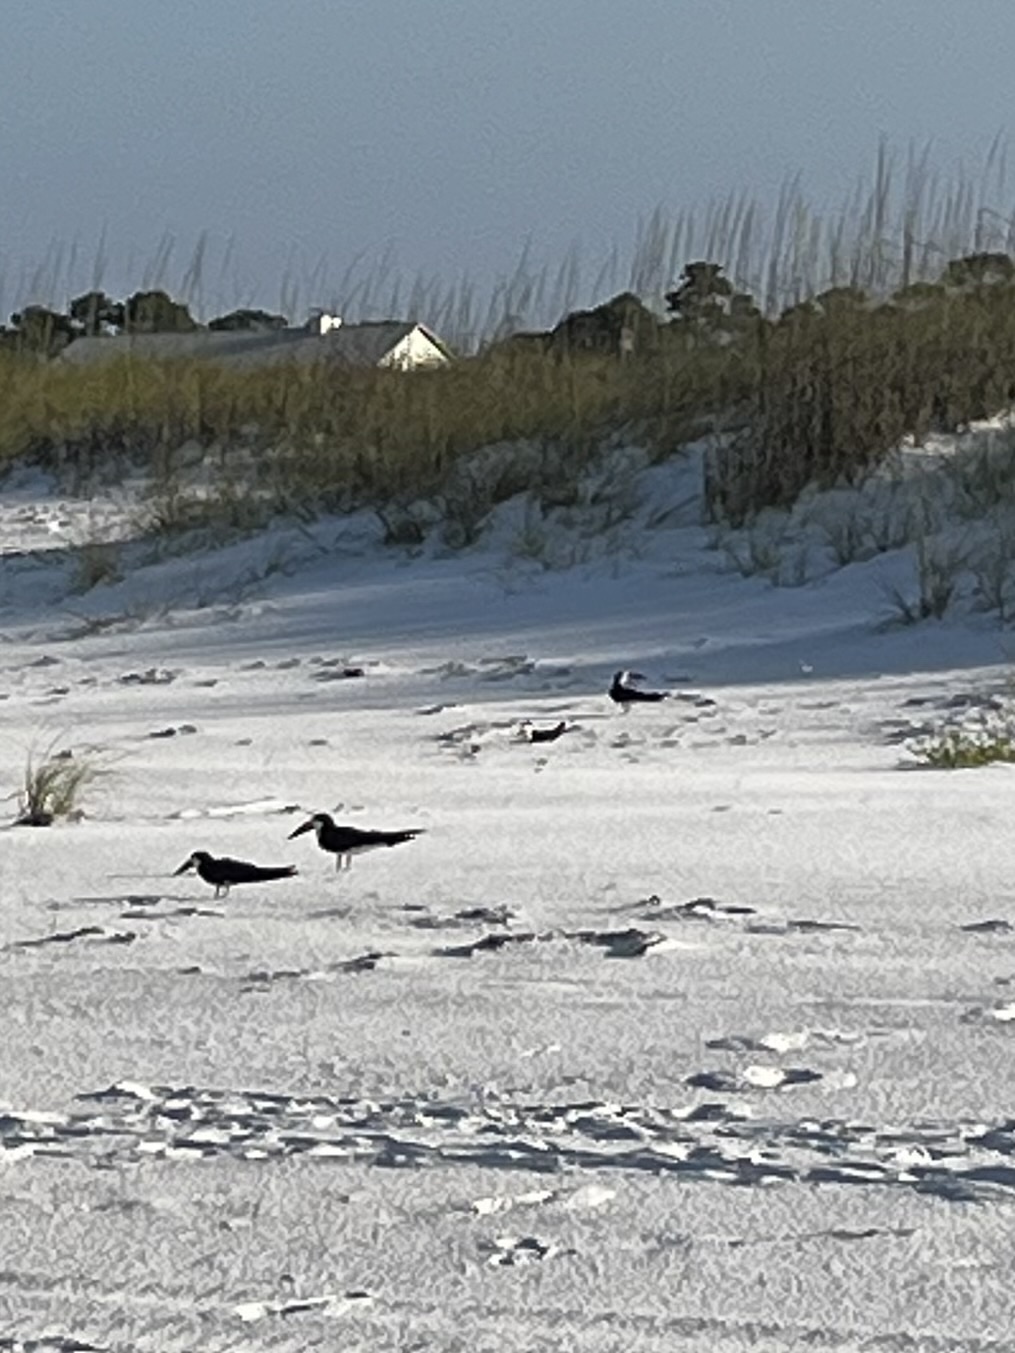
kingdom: Animalia
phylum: Chordata
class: Aves
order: Charadriiformes
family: Laridae
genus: Rynchops
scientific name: Rynchops niger
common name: Black skimmer
